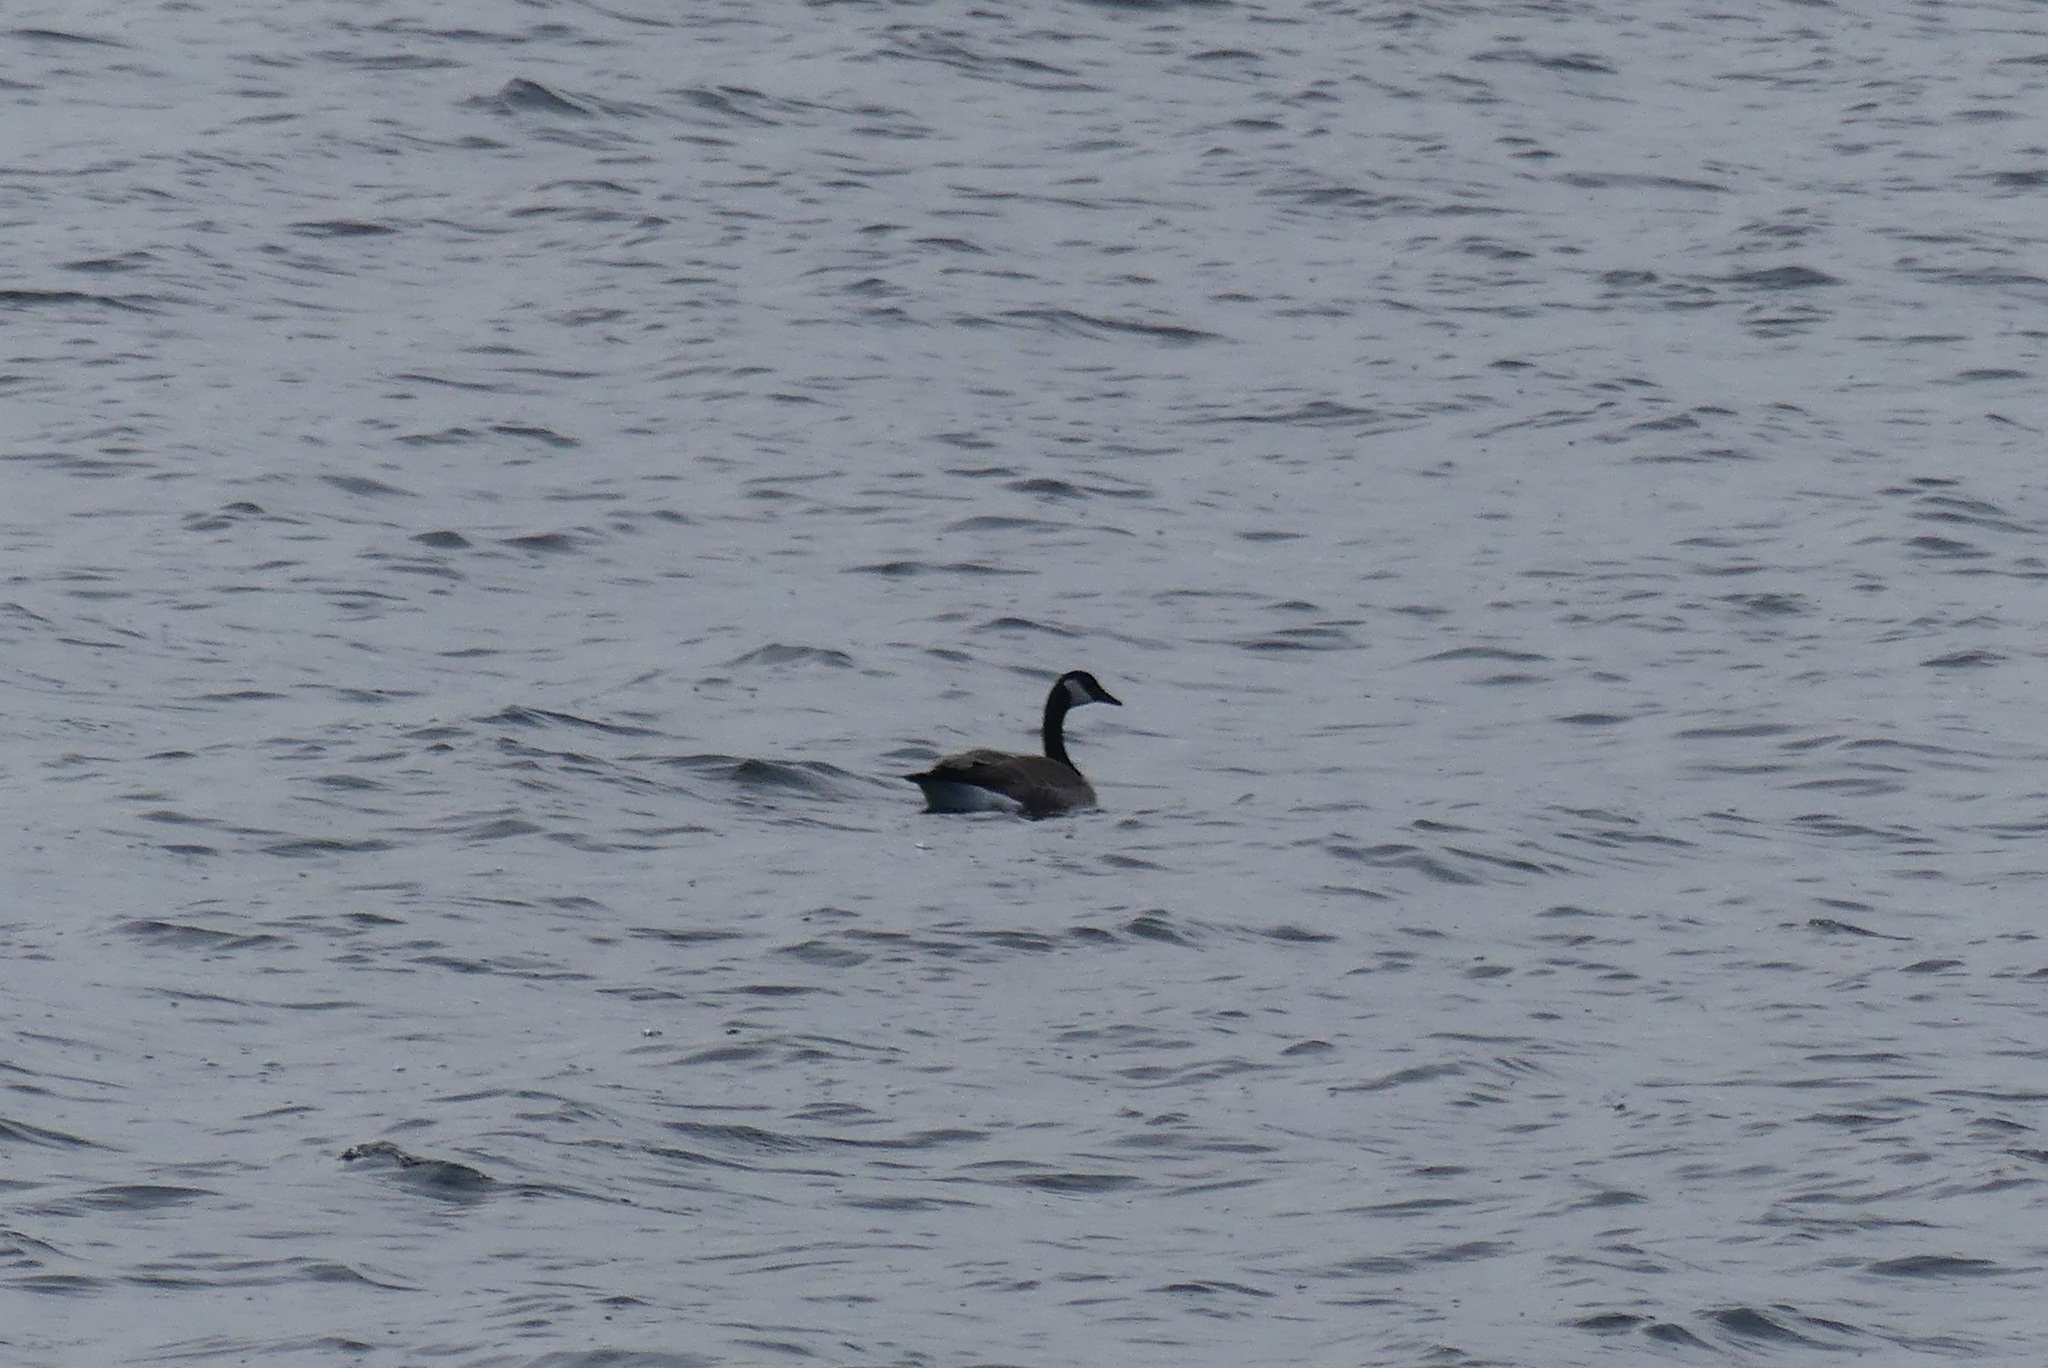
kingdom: Animalia
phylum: Chordata
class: Aves
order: Anseriformes
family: Anatidae
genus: Branta
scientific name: Branta canadensis
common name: Canada goose
